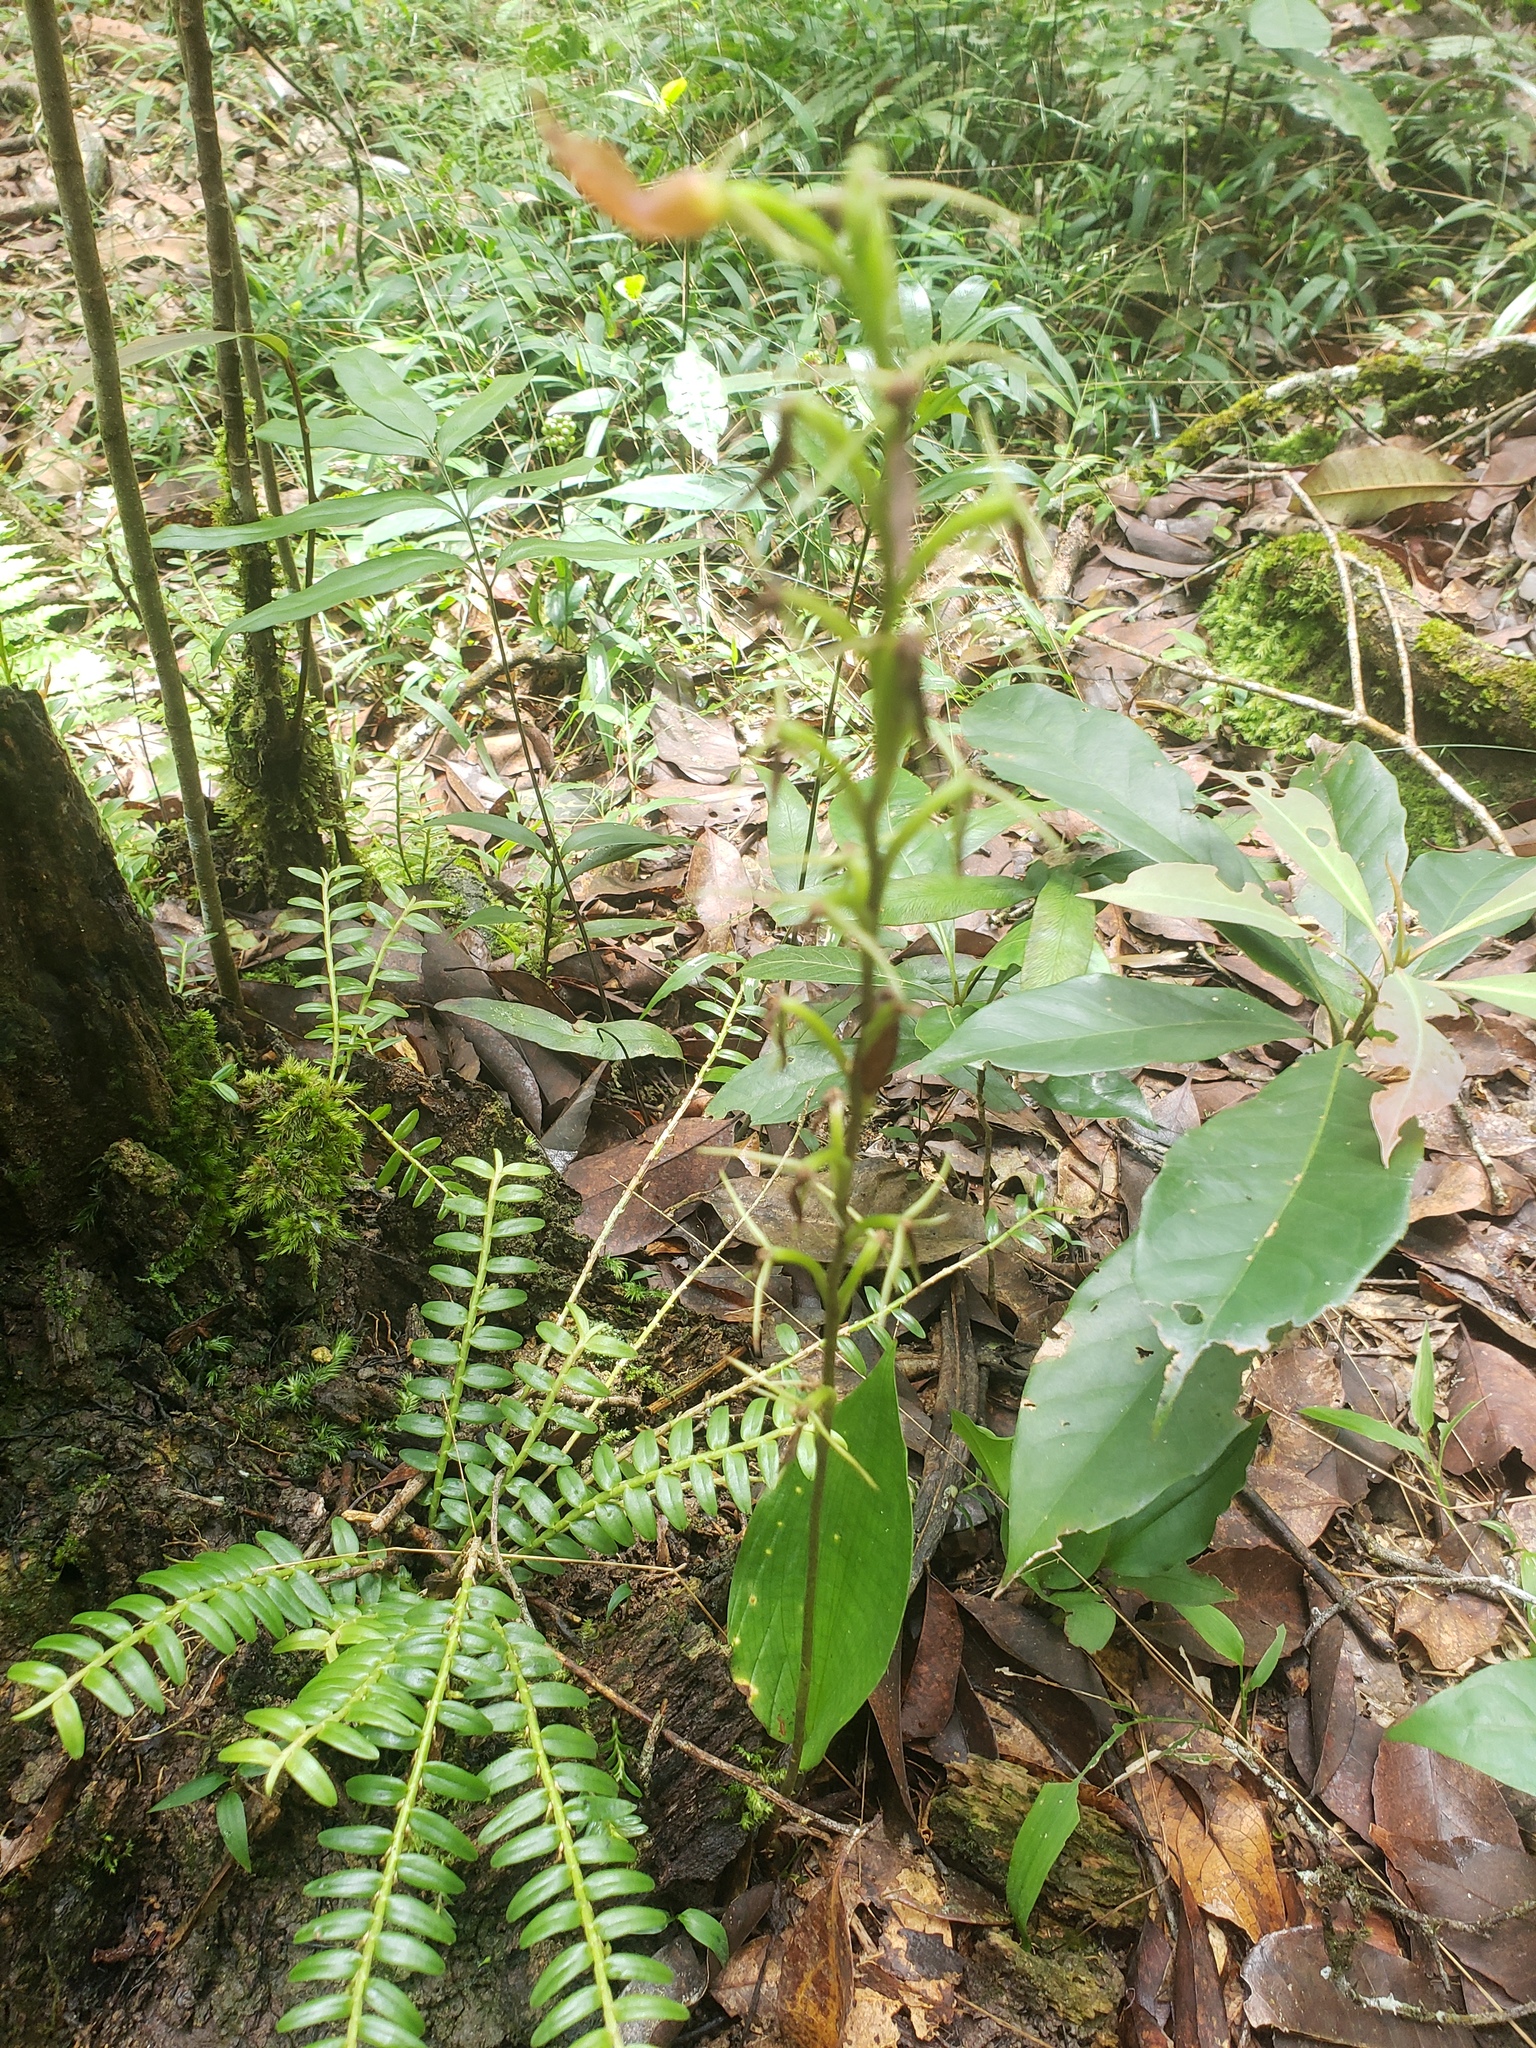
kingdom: Plantae
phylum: Tracheophyta
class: Liliopsida
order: Asparagales
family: Orchidaceae
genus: Cryptostylis
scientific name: Cryptostylis arachnites
